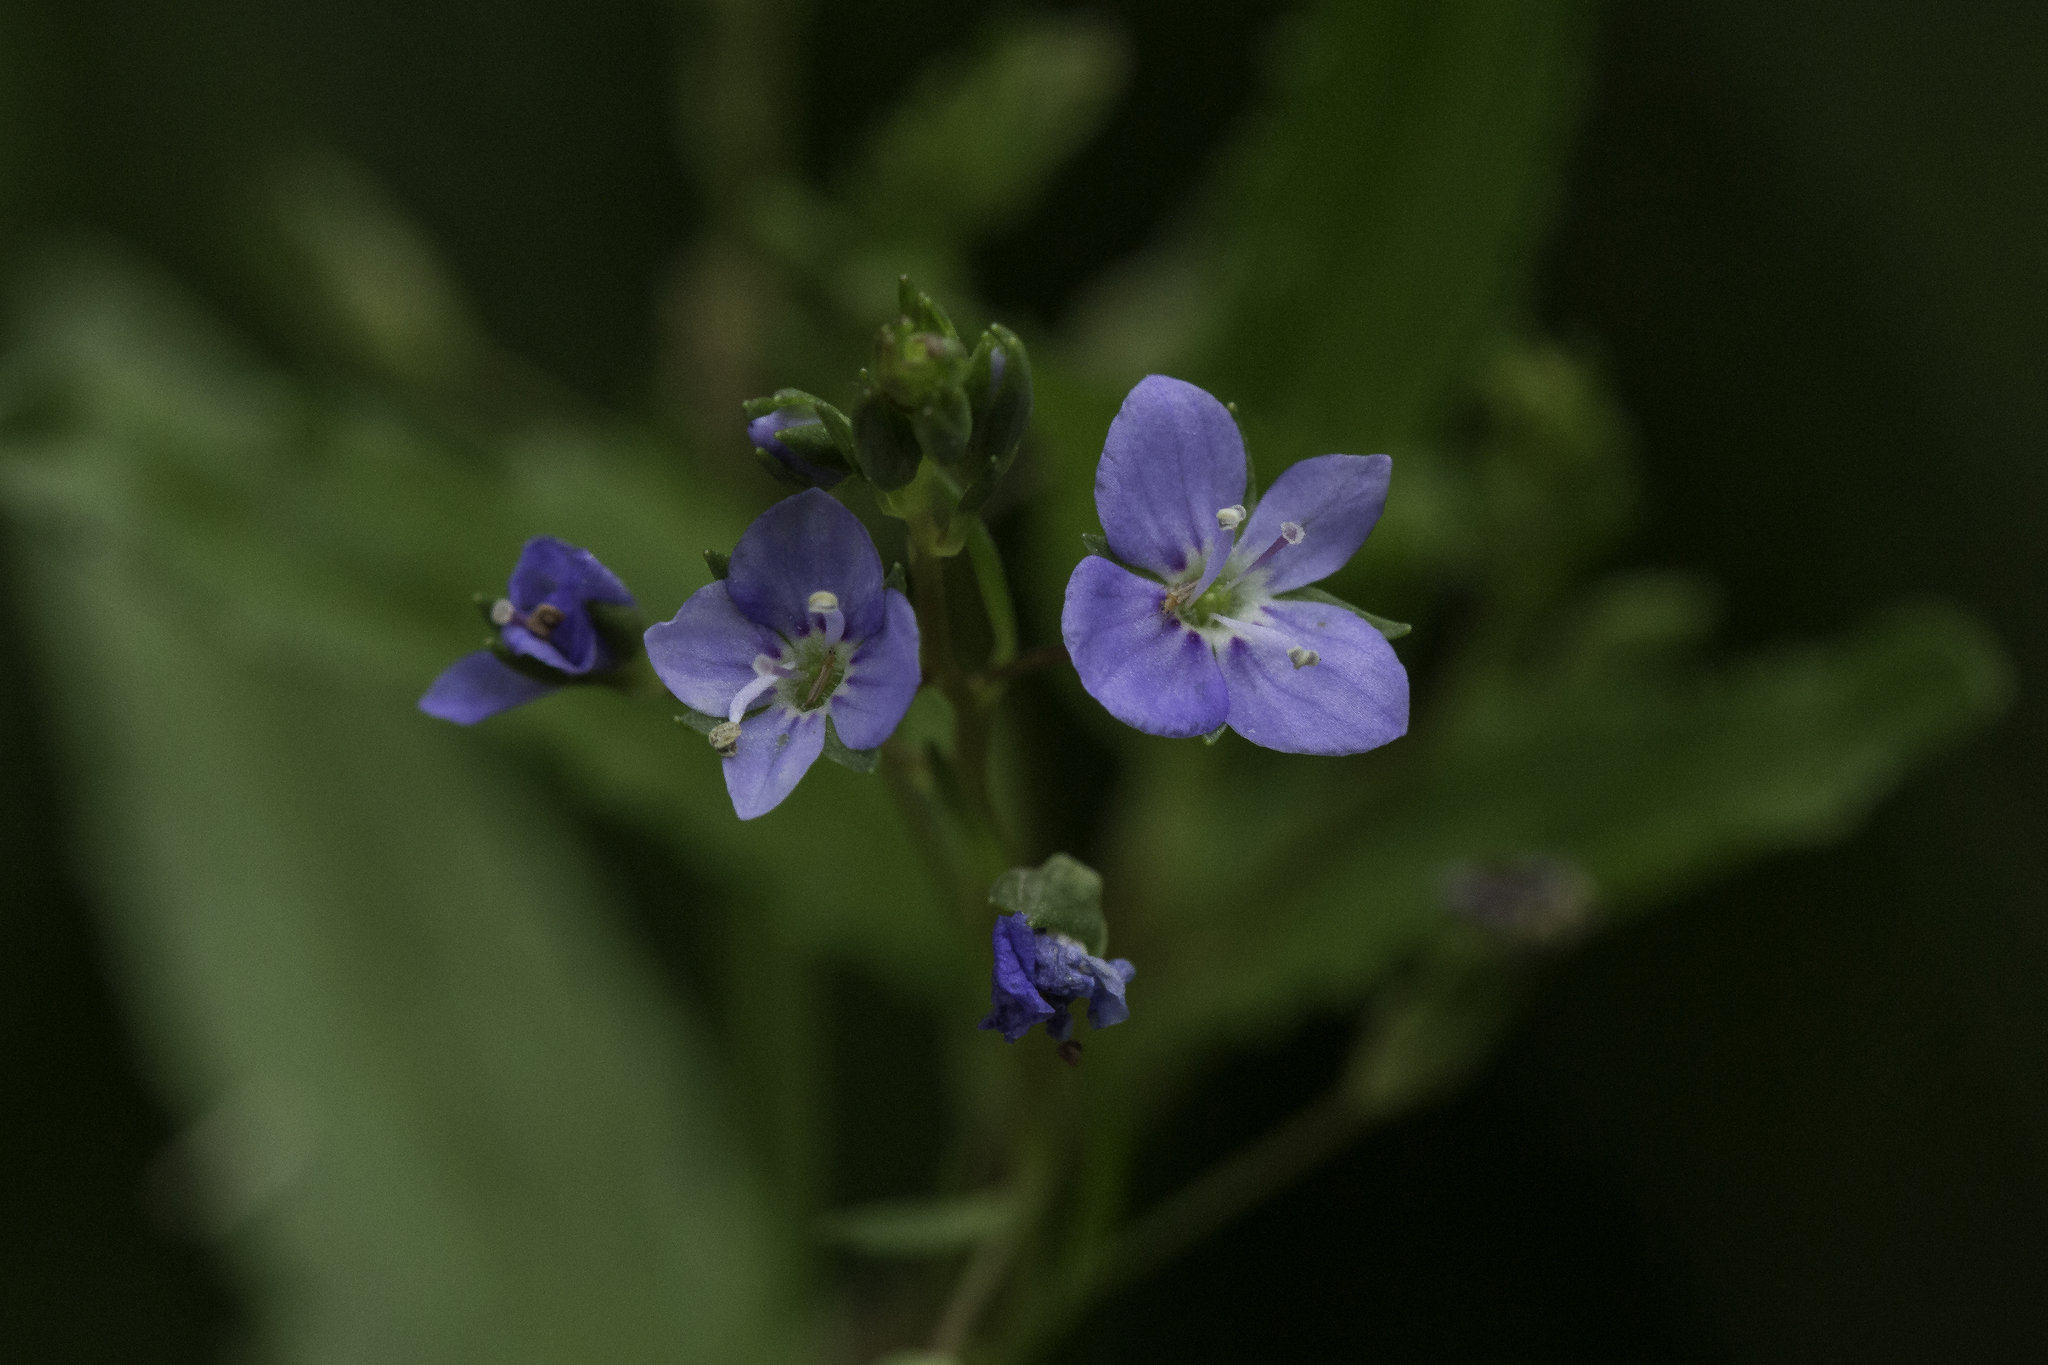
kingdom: Plantae
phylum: Tracheophyta
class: Magnoliopsida
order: Lamiales
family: Plantaginaceae
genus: Veronica
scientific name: Veronica americana
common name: American brooklime
